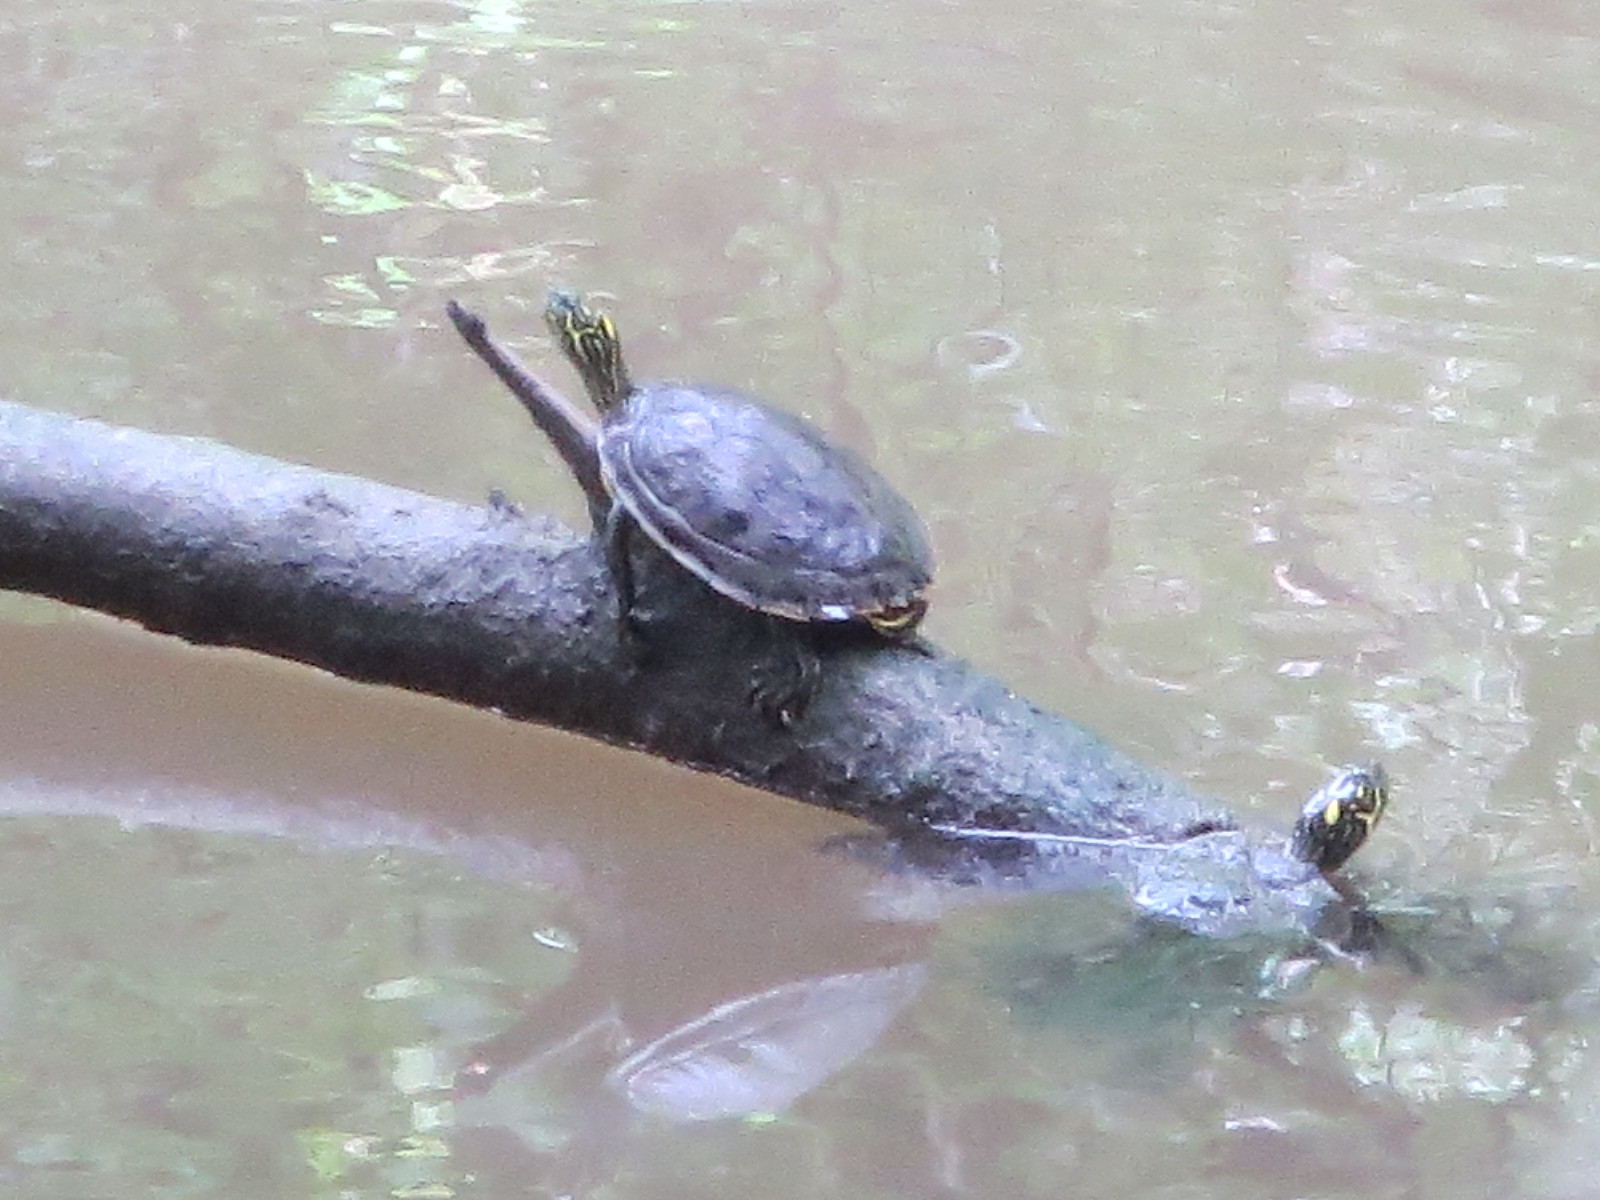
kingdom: Animalia
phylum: Chordata
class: Testudines
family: Emydidae
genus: Pseudemys
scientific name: Pseudemys texana
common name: Texas river cooter
